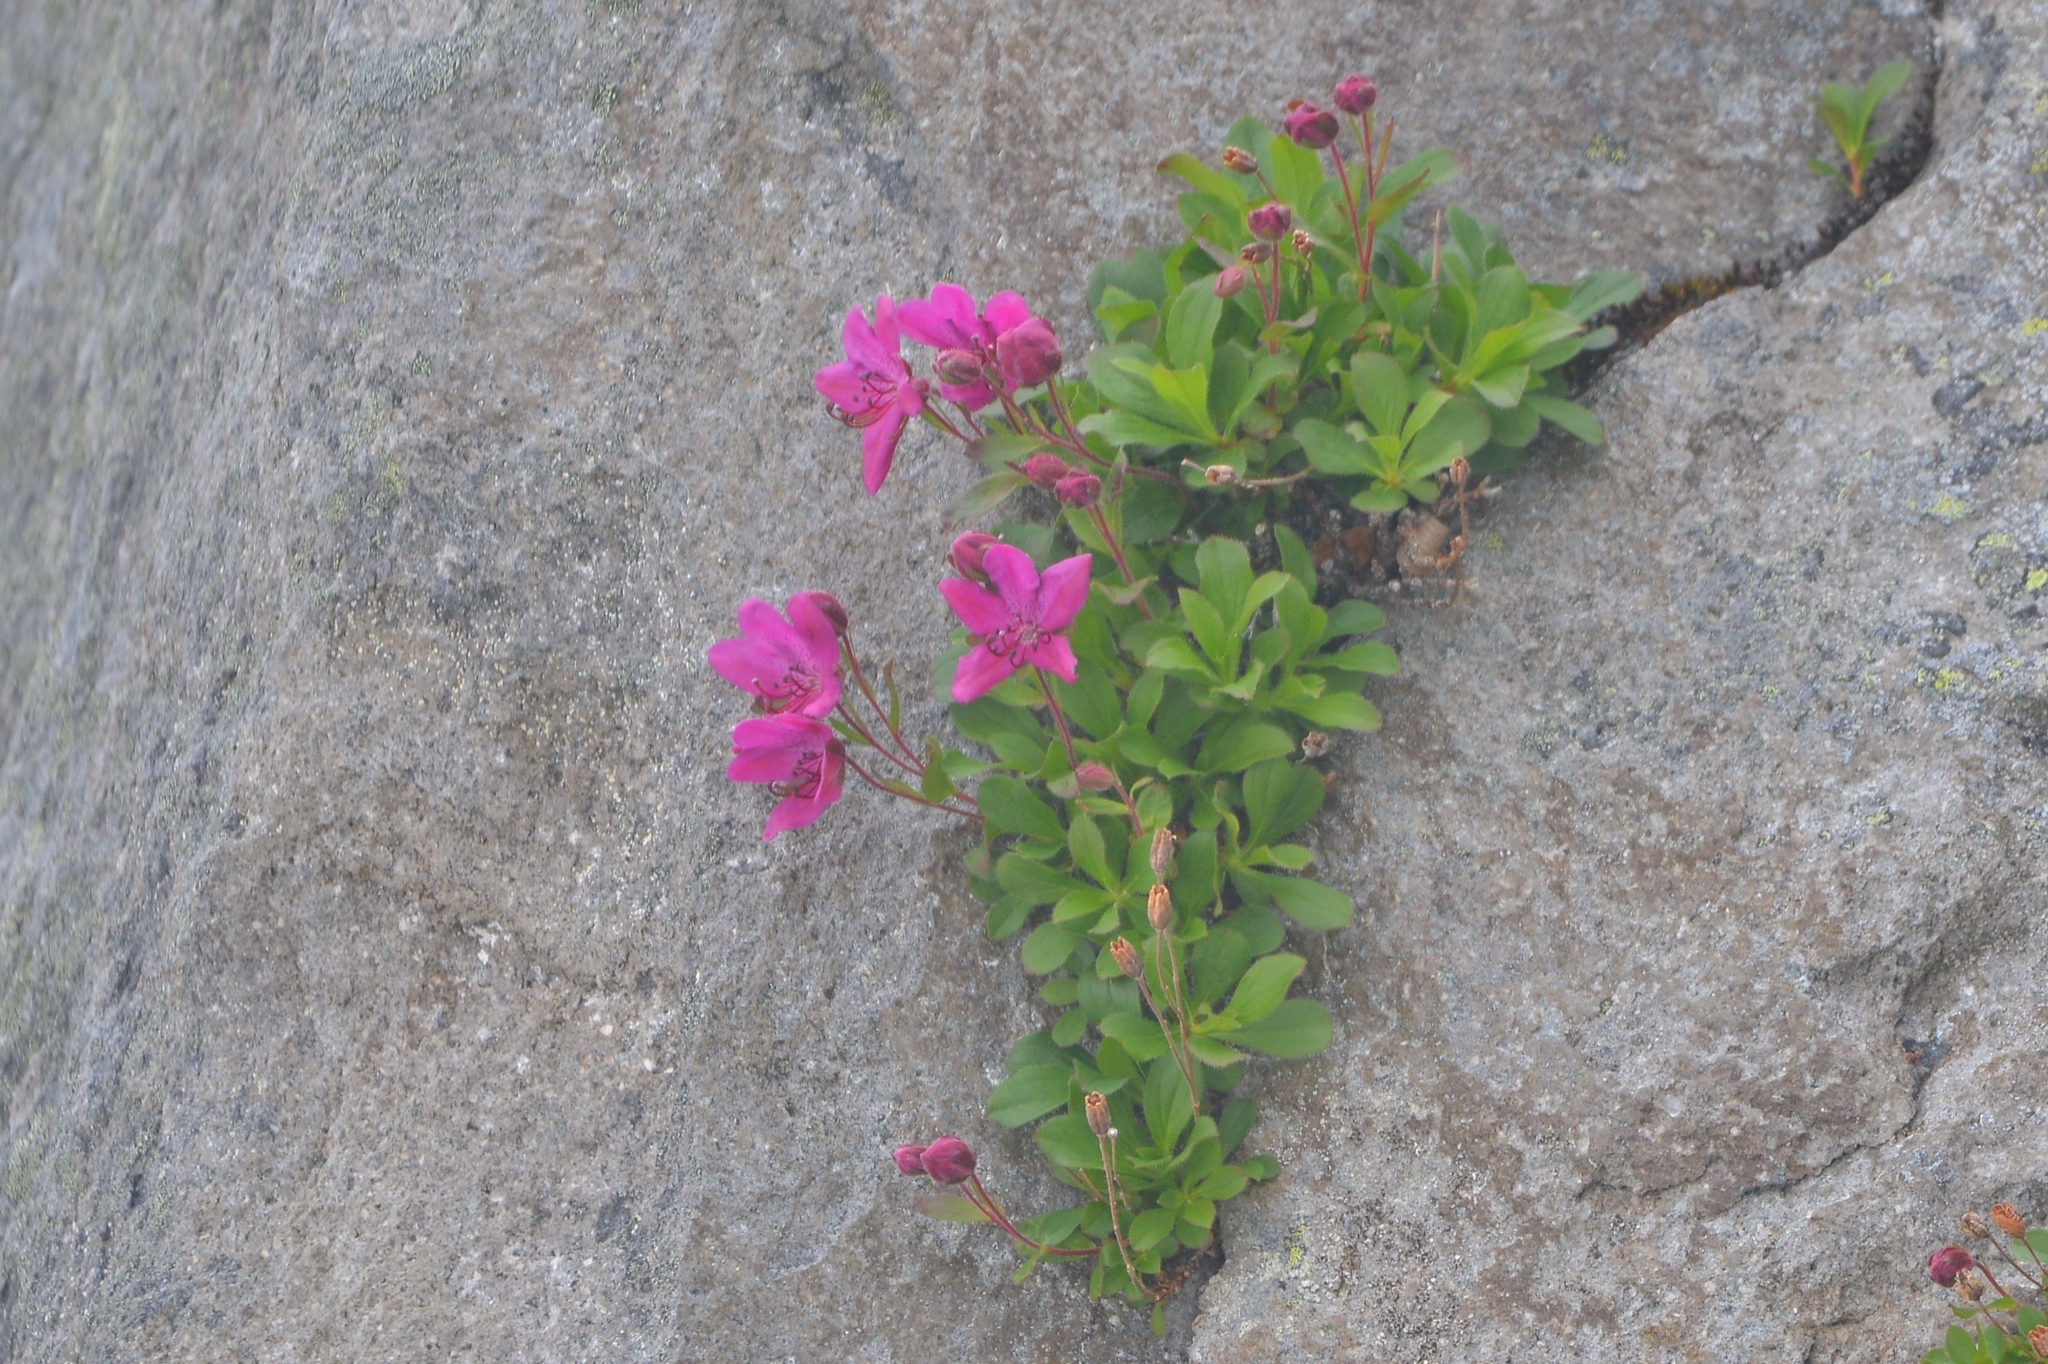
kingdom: Plantae
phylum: Tracheophyta
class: Magnoliopsida
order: Ericales
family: Ericaceae
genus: Rhododendron
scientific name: Rhododendron camtschaticum
